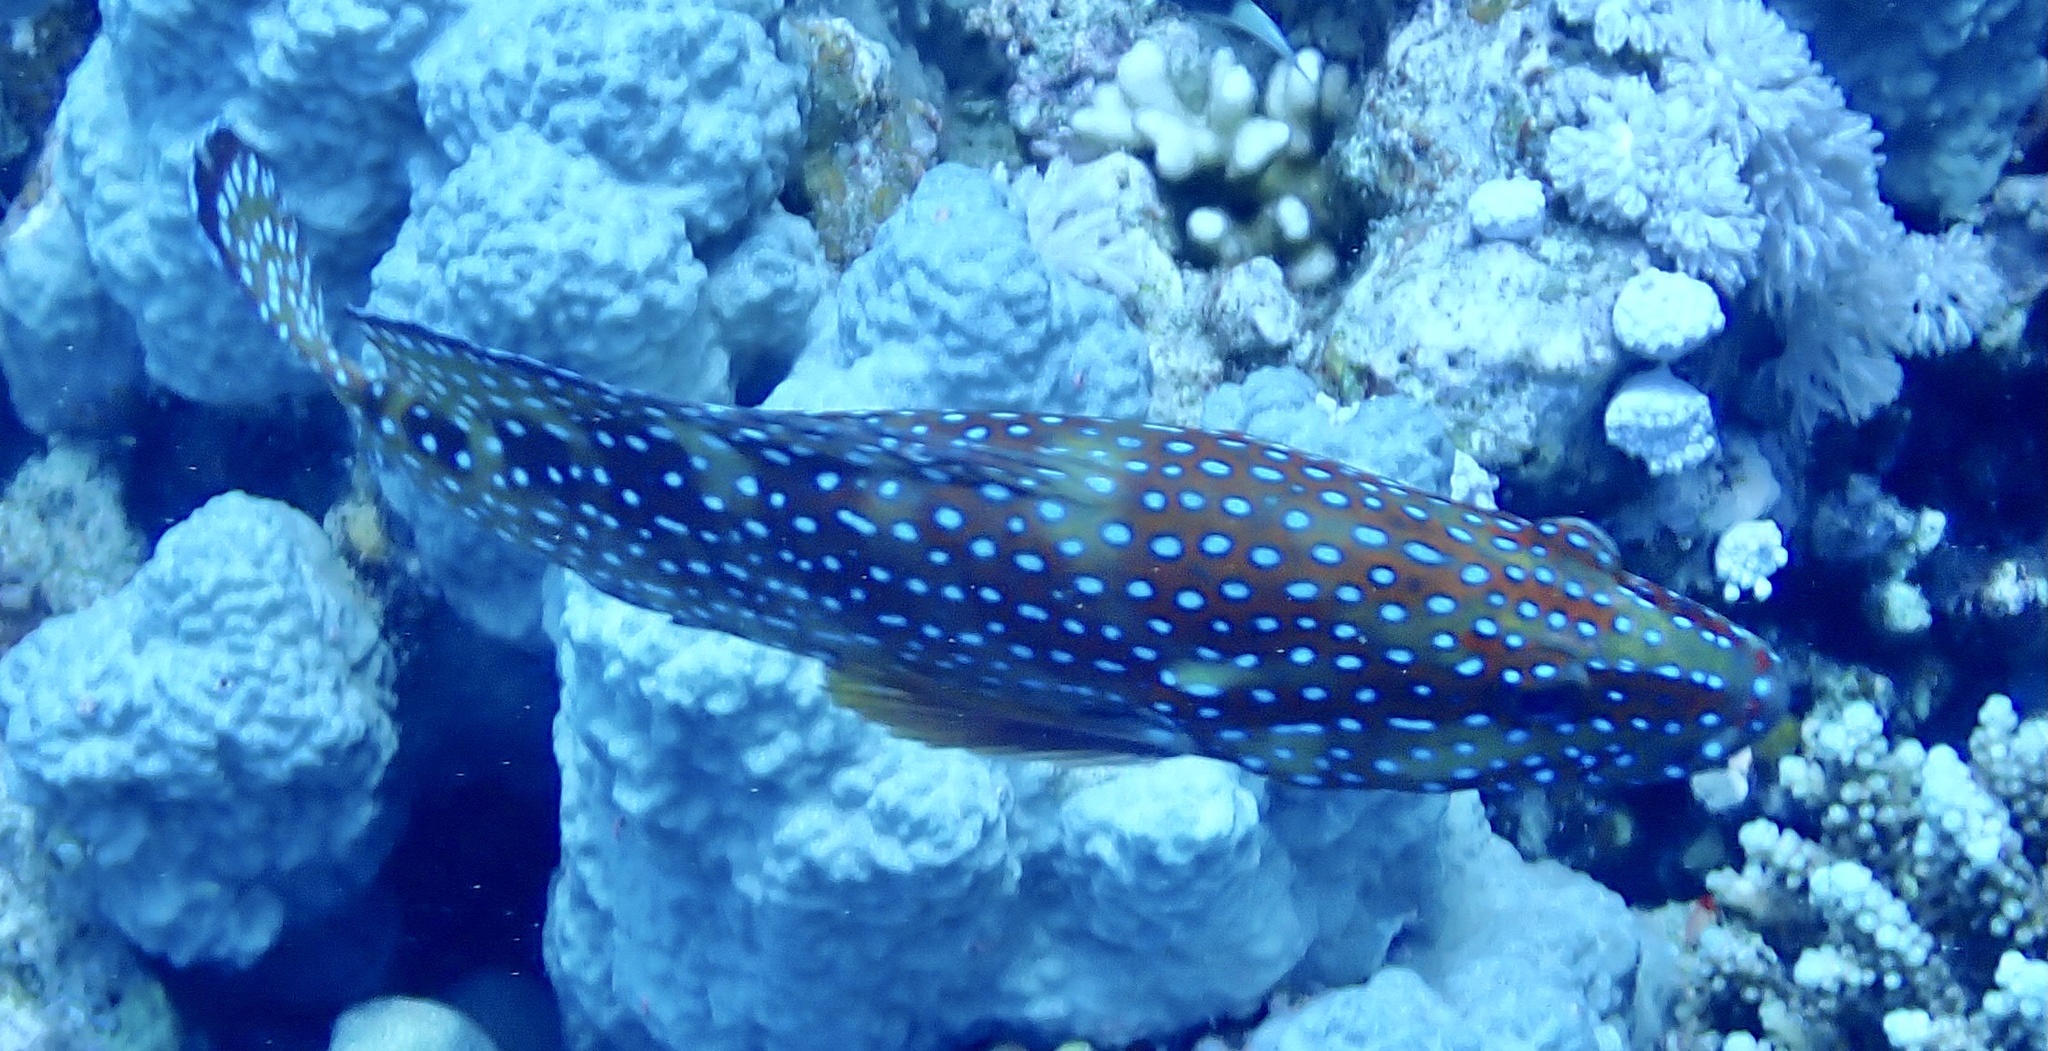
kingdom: Animalia
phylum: Chordata
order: Perciformes
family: Serranidae
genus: Cephalopholis
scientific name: Cephalopholis miniata
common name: Coral hind
